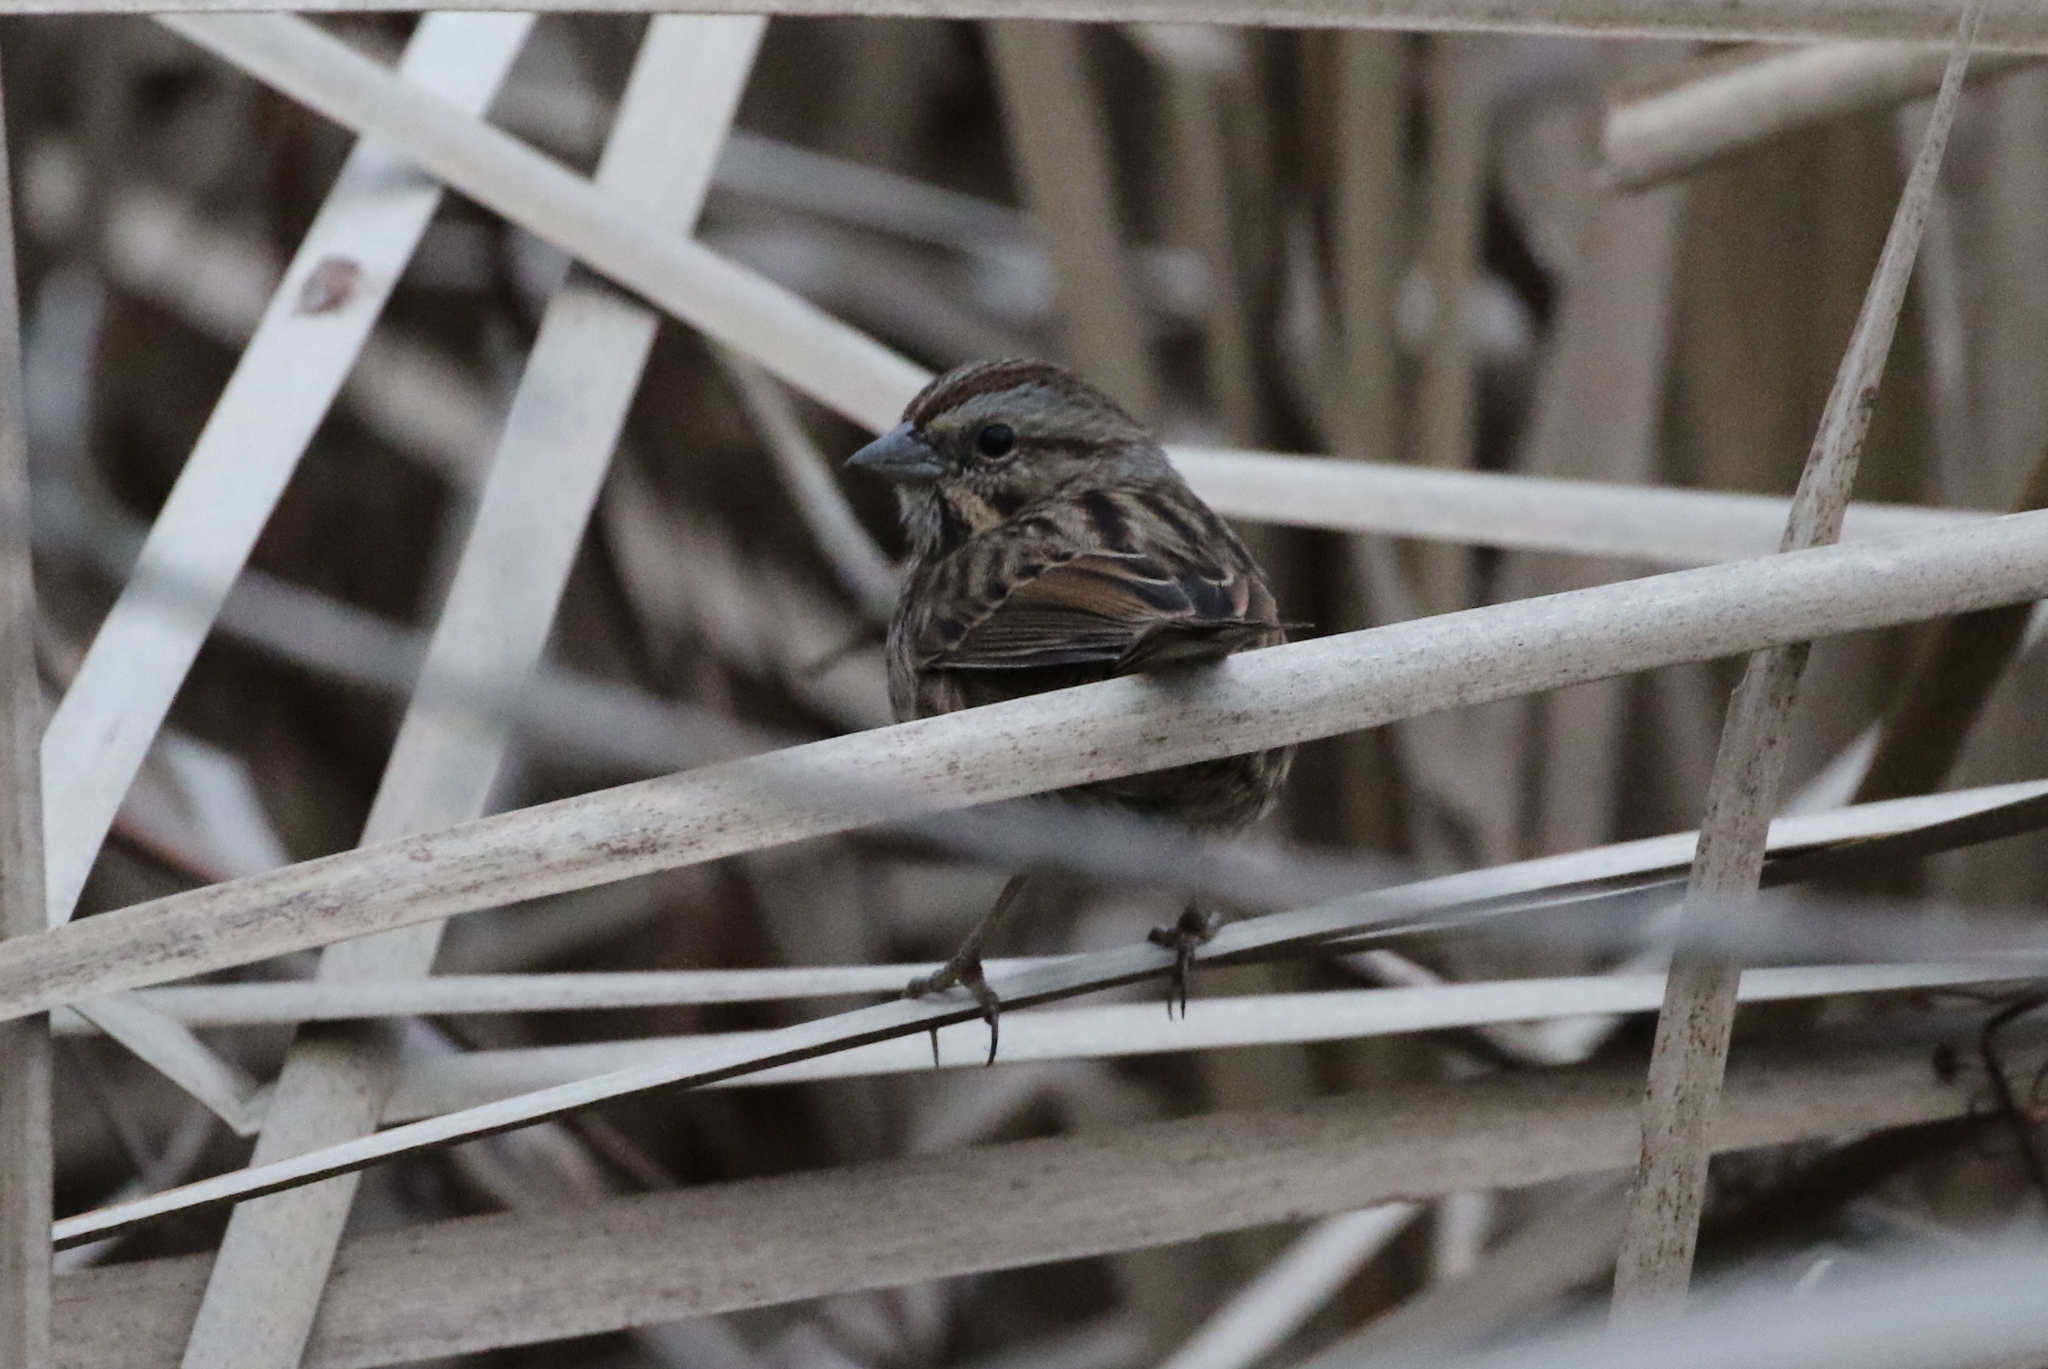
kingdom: Animalia
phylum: Chordata
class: Aves
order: Passeriformes
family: Passerellidae
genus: Melospiza
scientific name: Melospiza melodia
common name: Song sparrow
